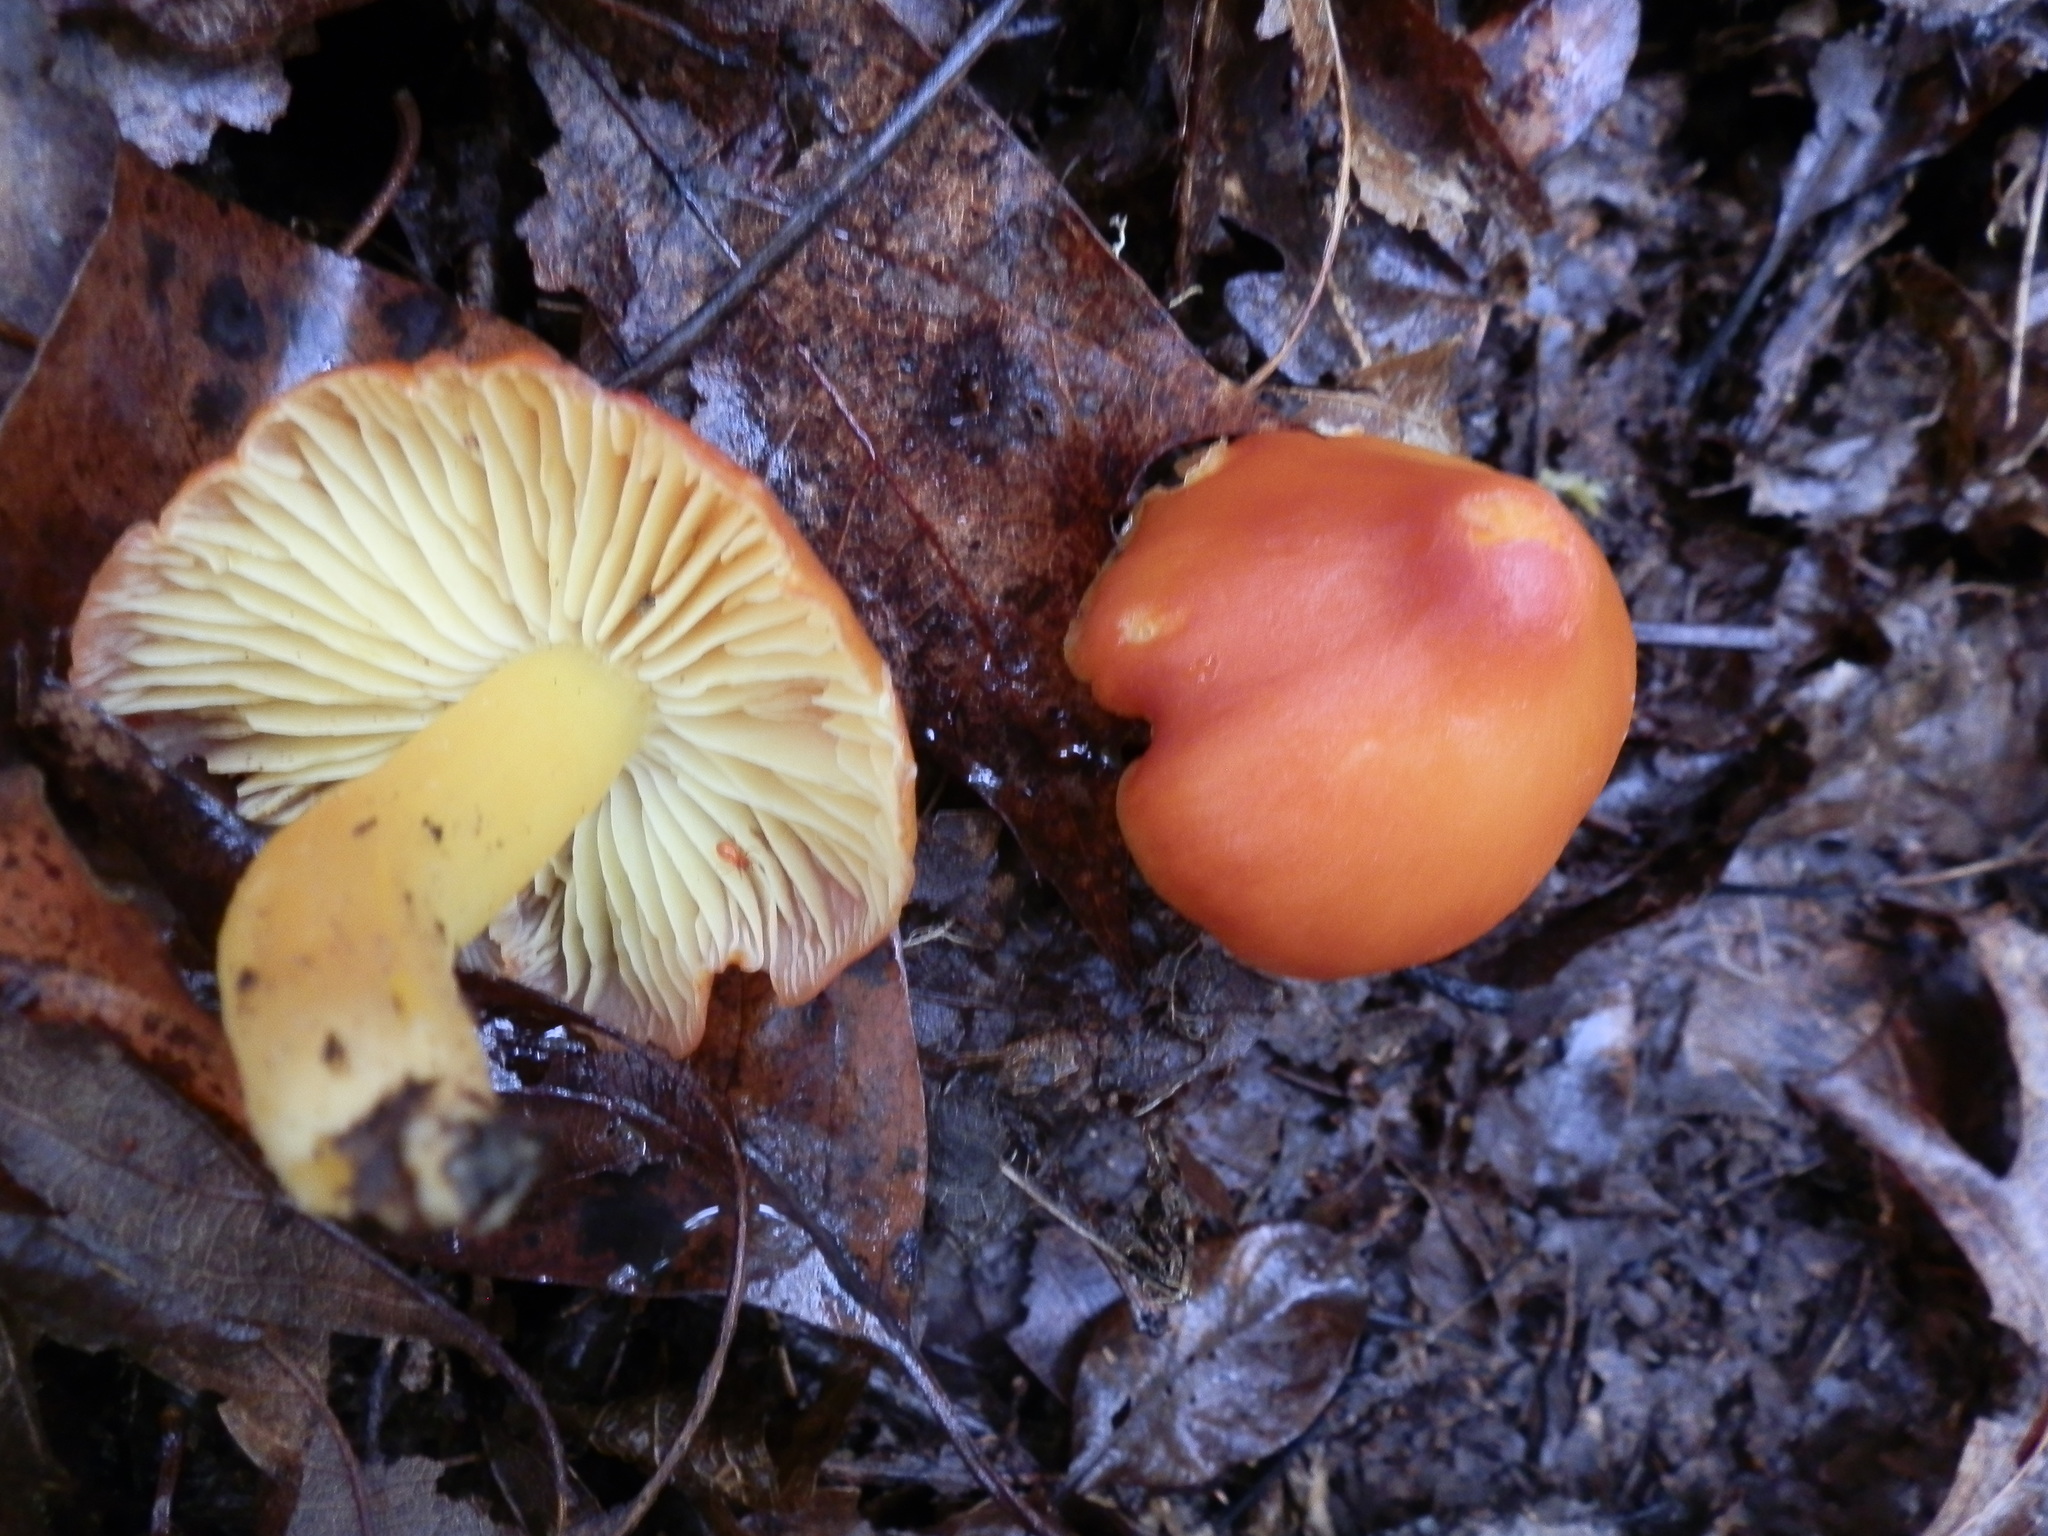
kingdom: Fungi
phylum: Basidiomycota
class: Agaricomycetes
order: Agaricales
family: Hygrophoraceae
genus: Hygrocybe
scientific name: Hygrocybe acutoconica
